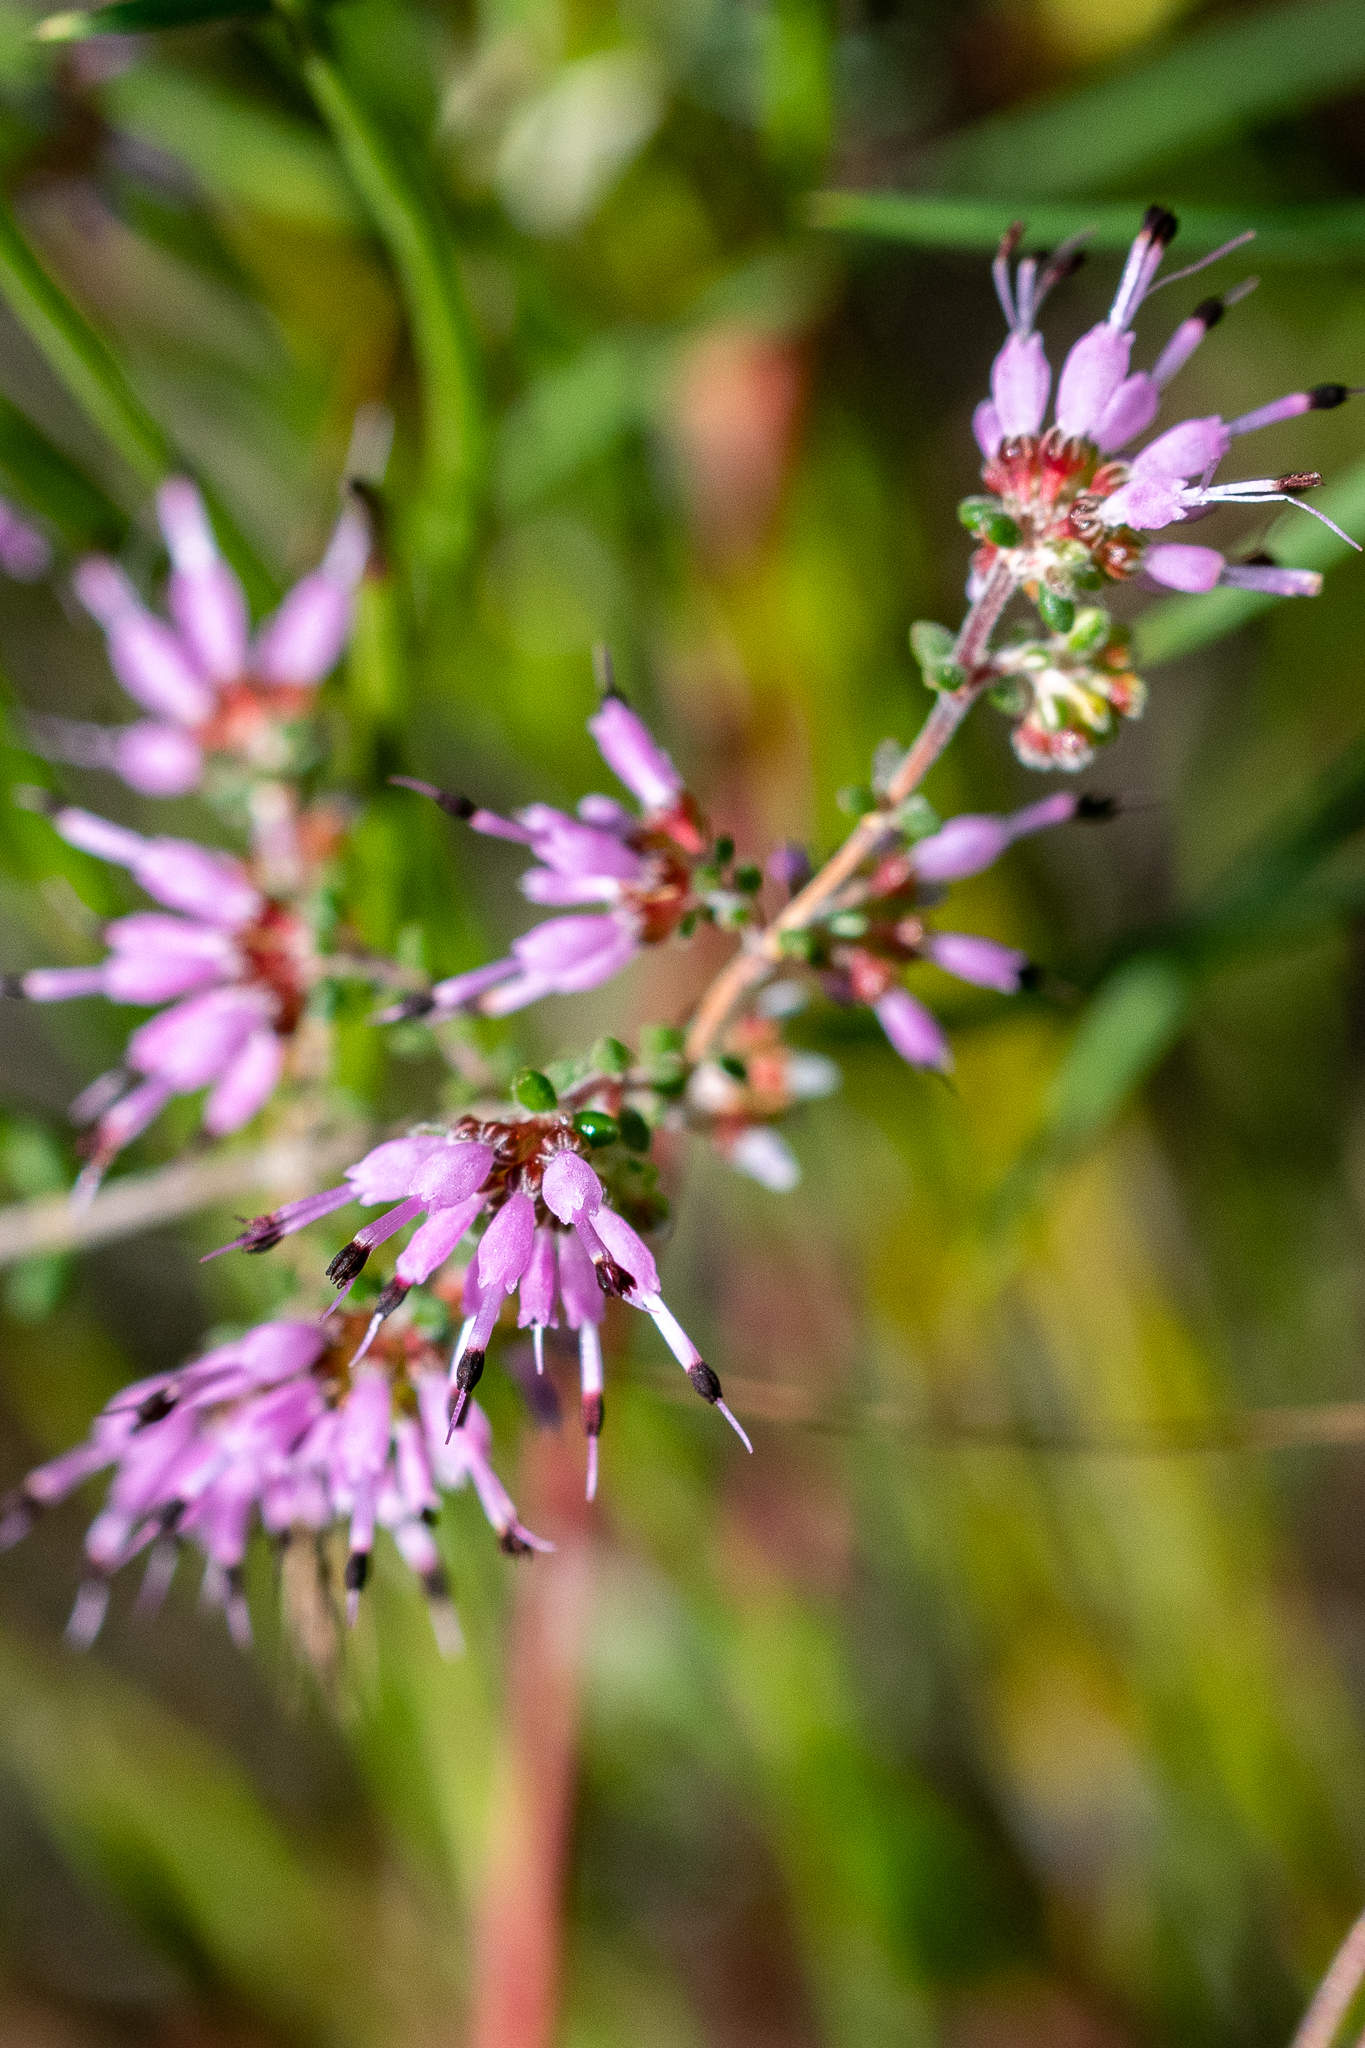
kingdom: Plantae
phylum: Tracheophyta
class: Magnoliopsida
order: Ericales
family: Ericaceae
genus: Erica
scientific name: Erica paucifolia
